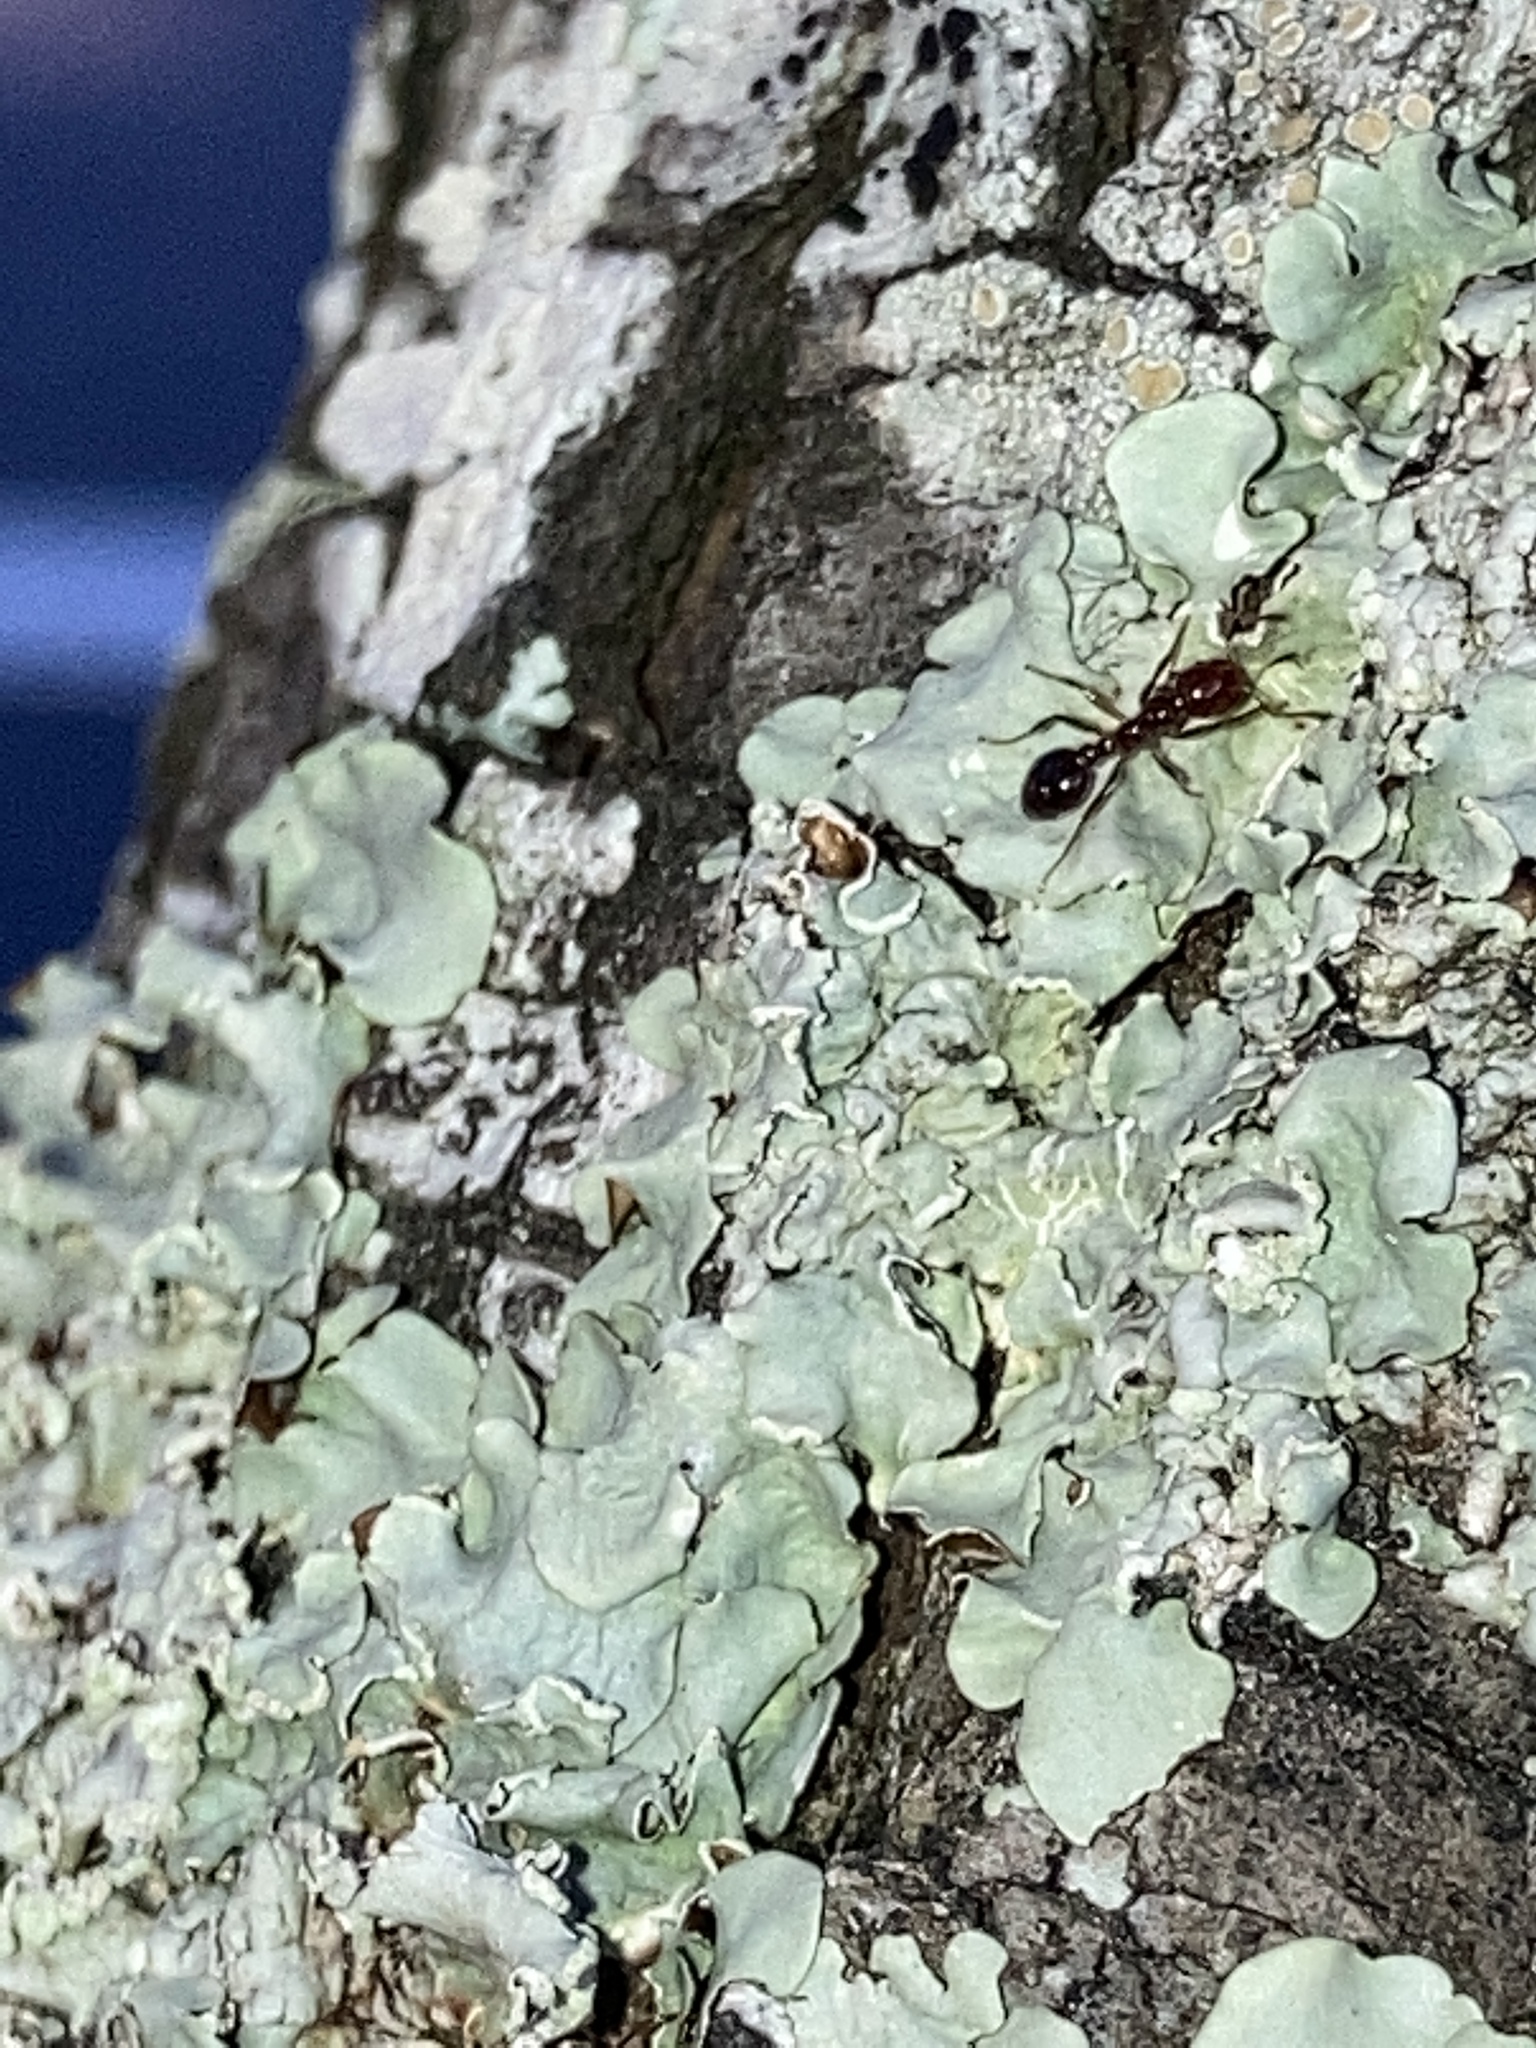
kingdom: Animalia
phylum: Arthropoda
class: Insecta
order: Hymenoptera
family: Formicidae
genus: Solenopsis
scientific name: Solenopsis invicta
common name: Red imported fire ant
